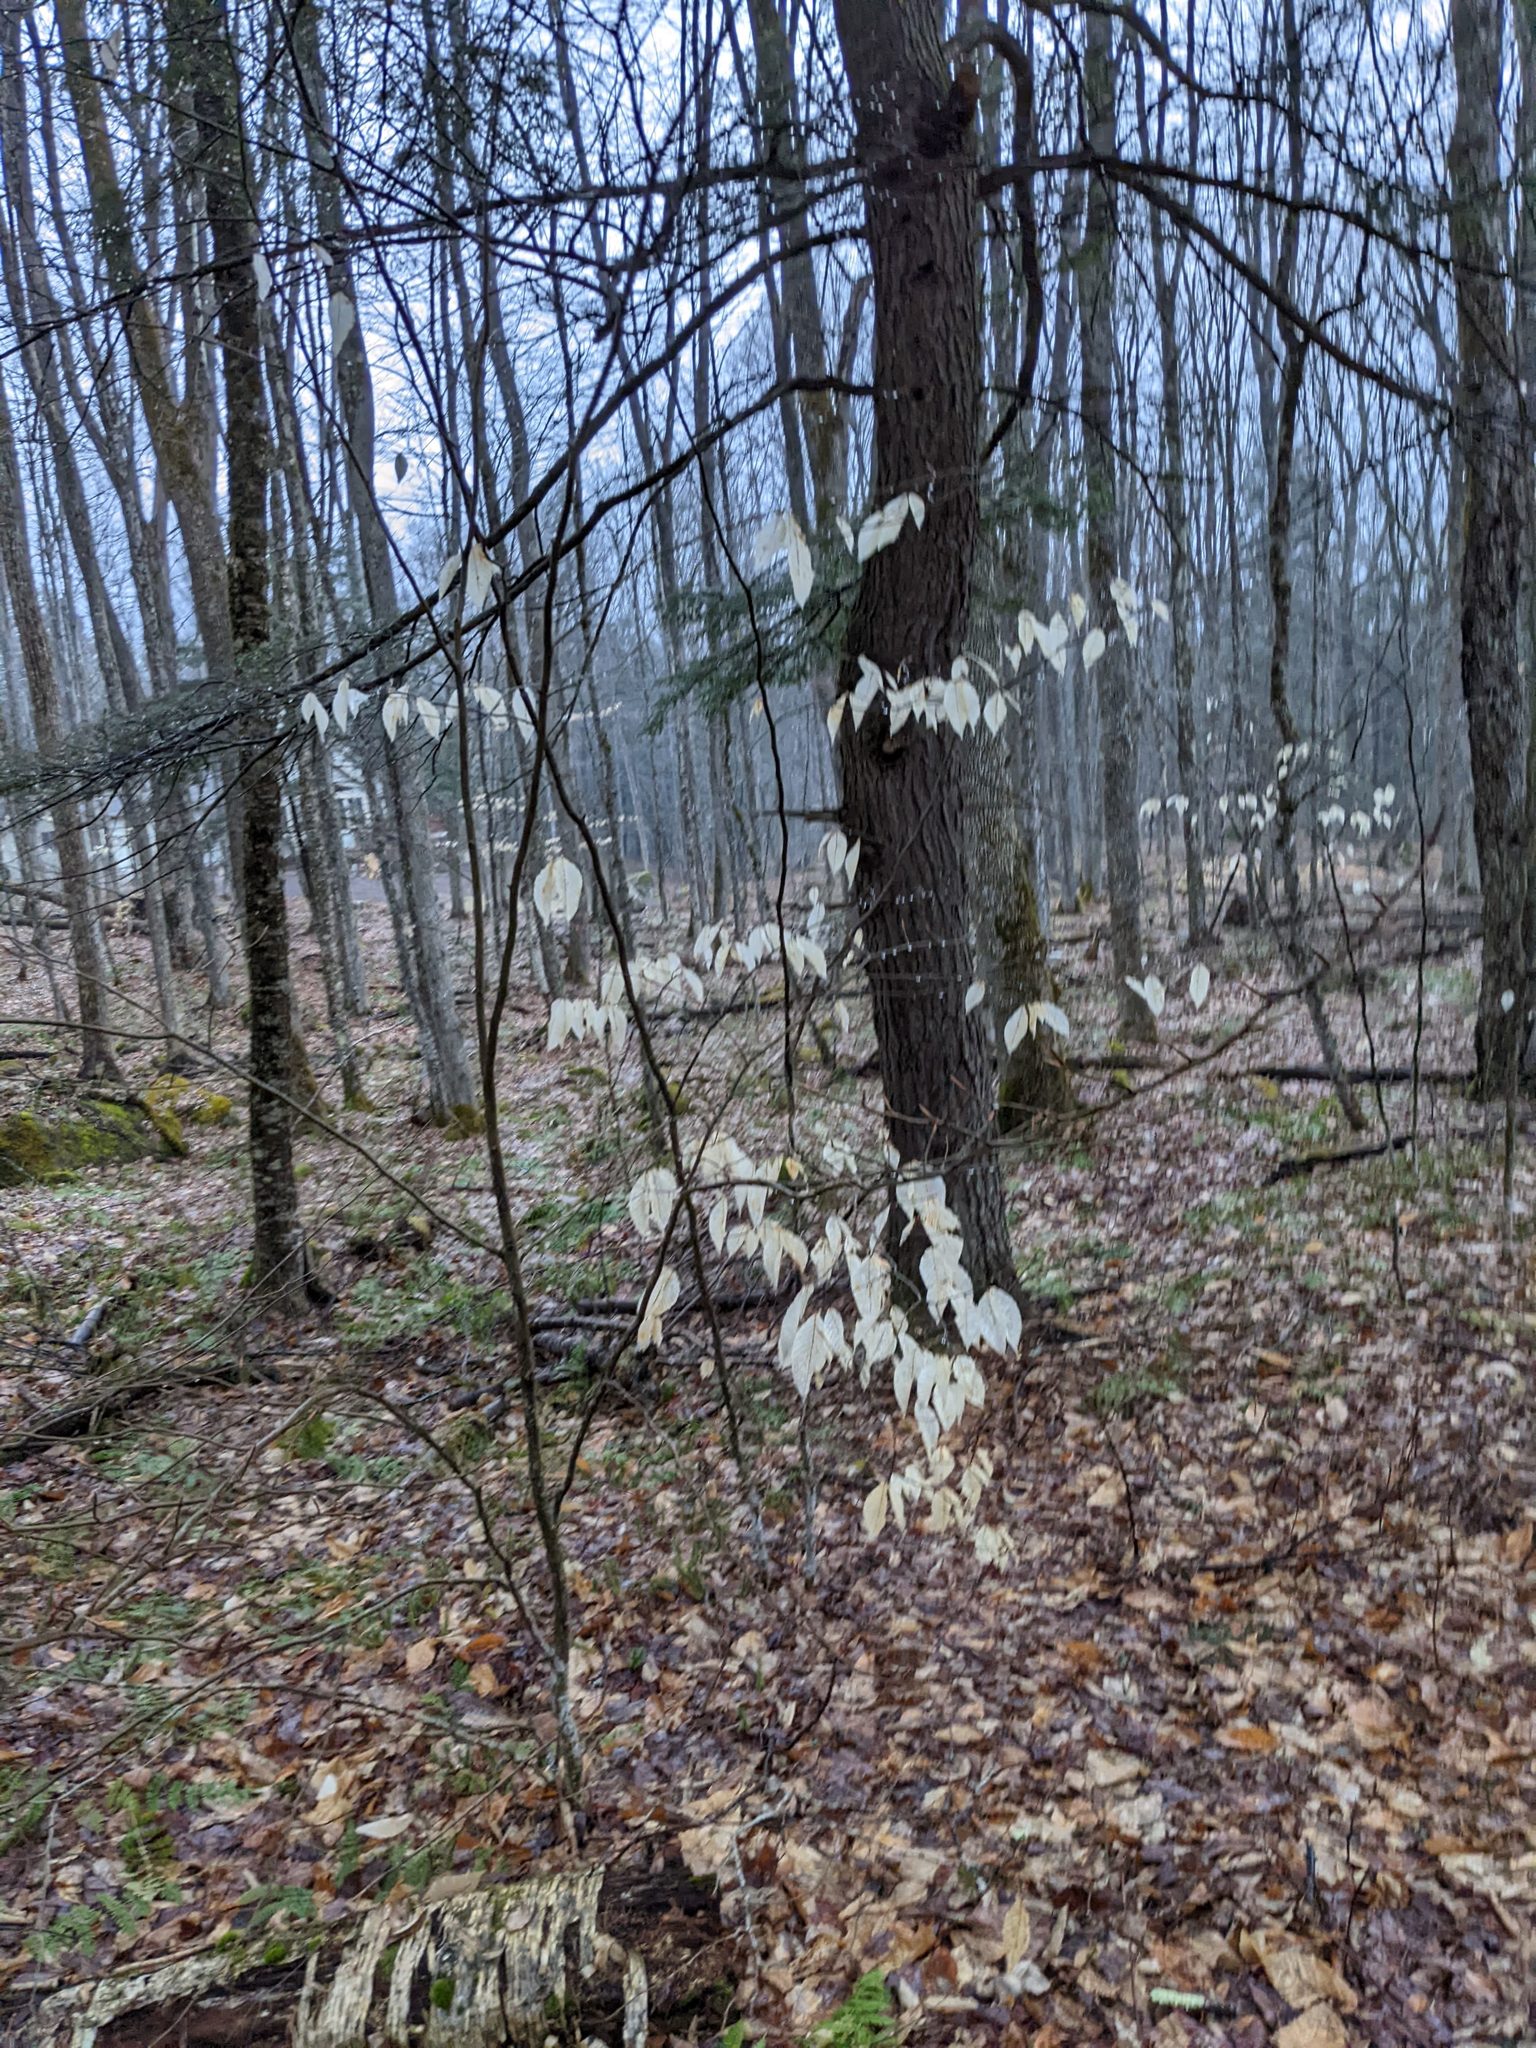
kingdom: Plantae
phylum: Tracheophyta
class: Magnoliopsida
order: Fagales
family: Fagaceae
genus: Fagus
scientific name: Fagus grandifolia
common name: American beech
